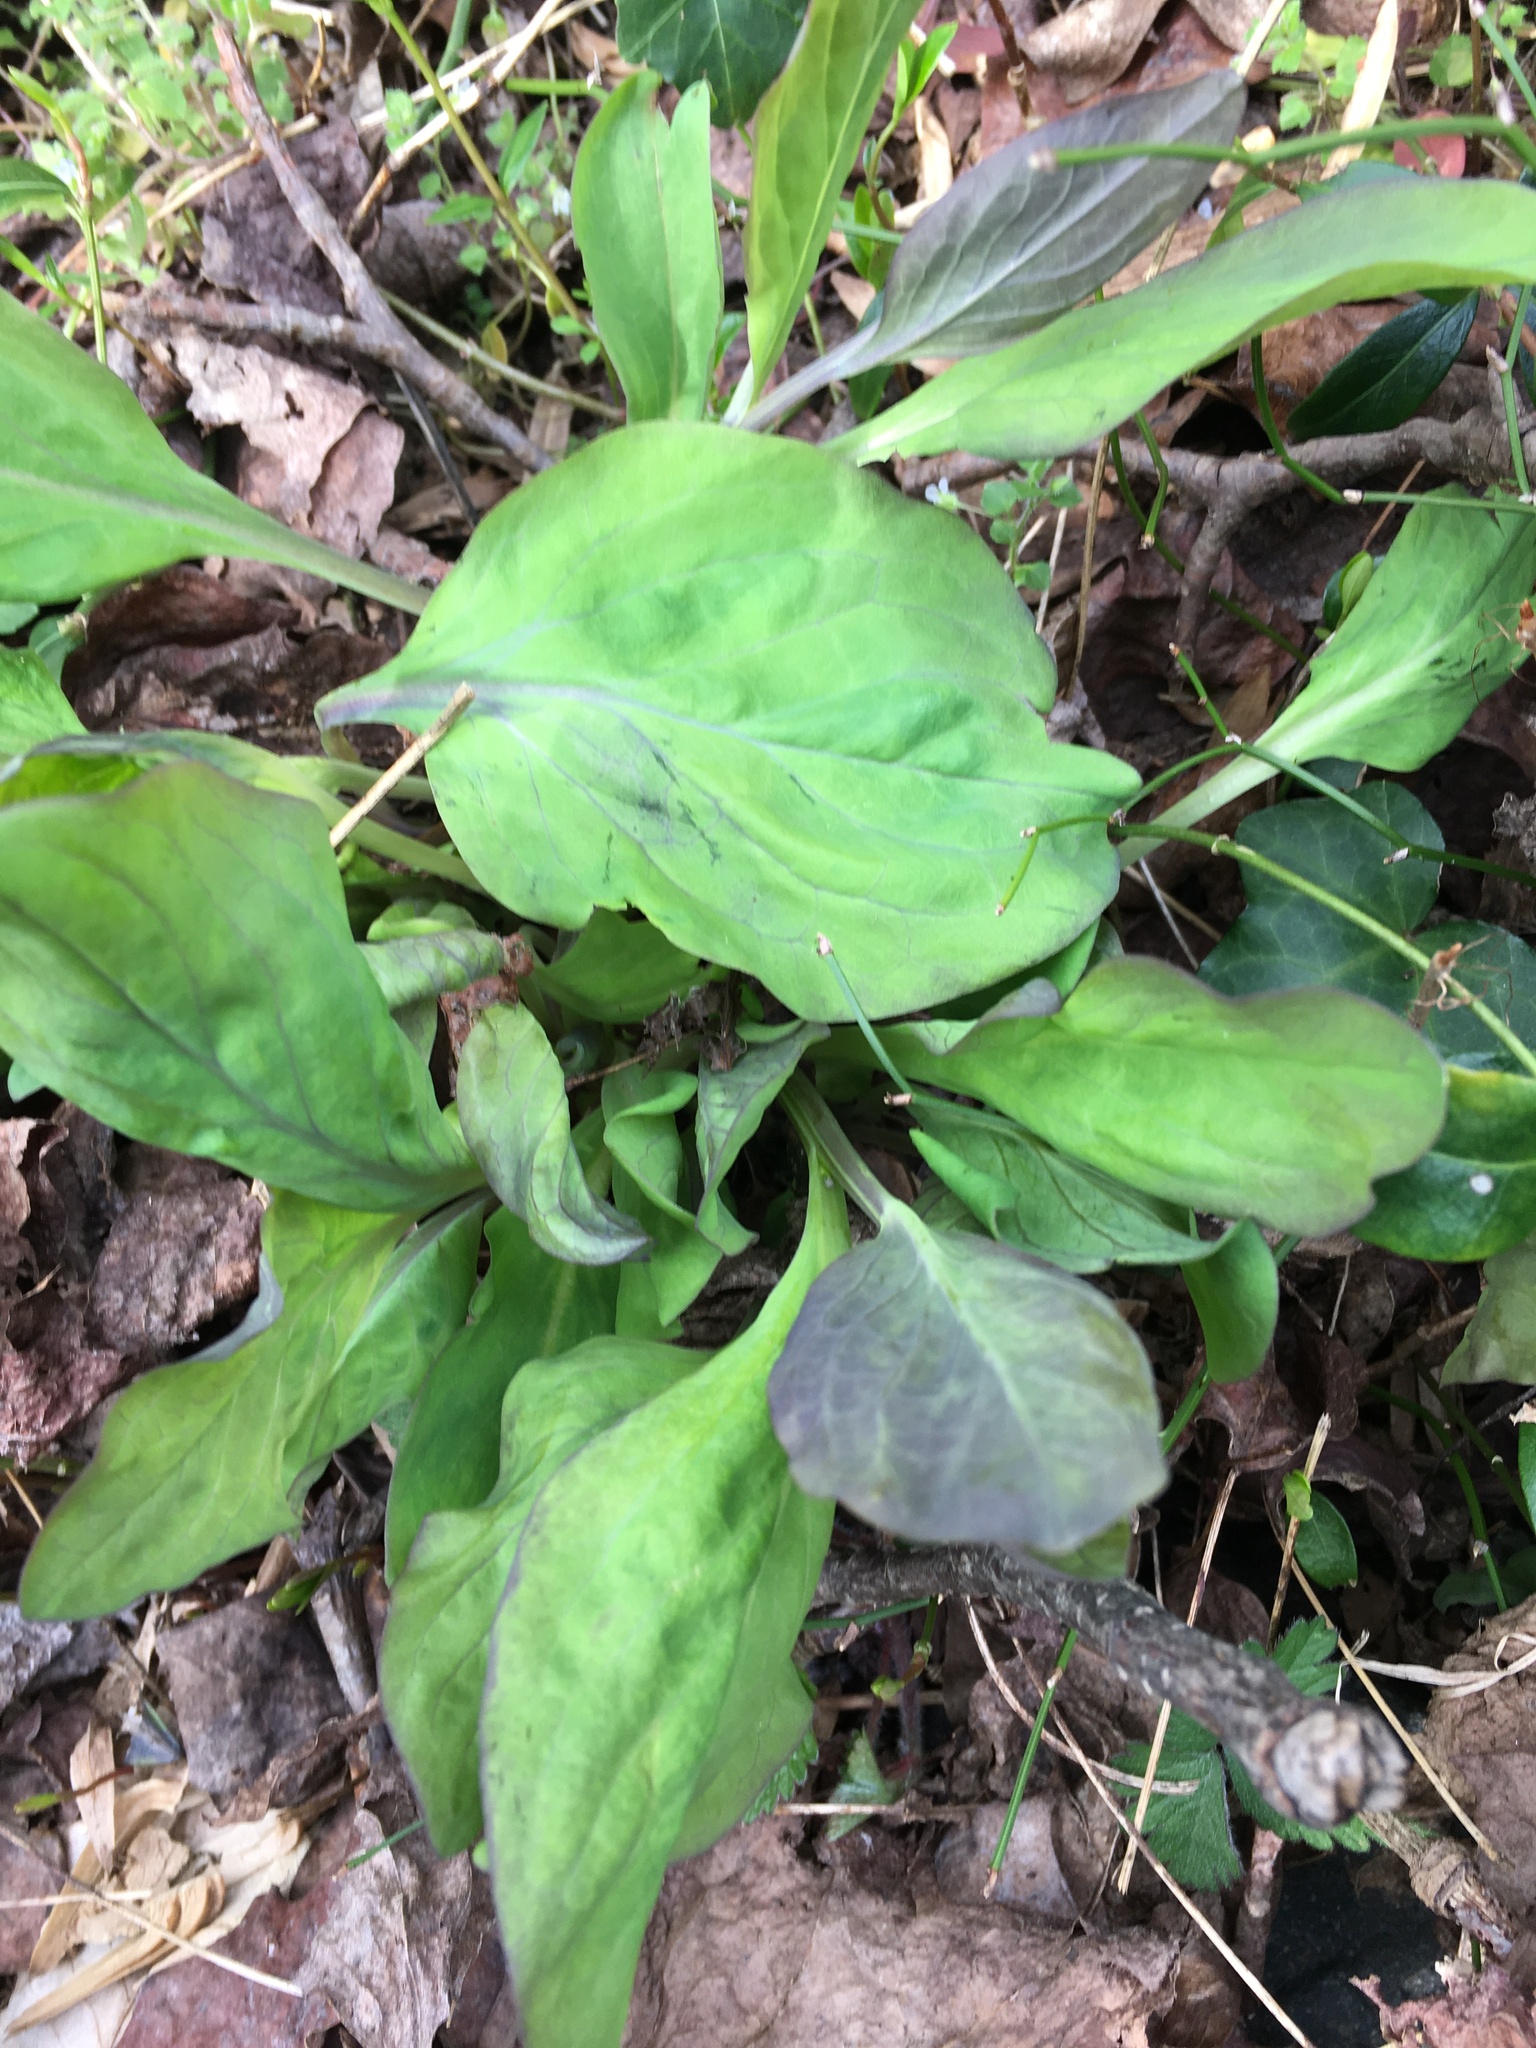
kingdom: Plantae
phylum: Tracheophyta
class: Magnoliopsida
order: Boraginales
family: Boraginaceae
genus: Mertensia
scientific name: Mertensia virginica
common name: Virginia bluebells
